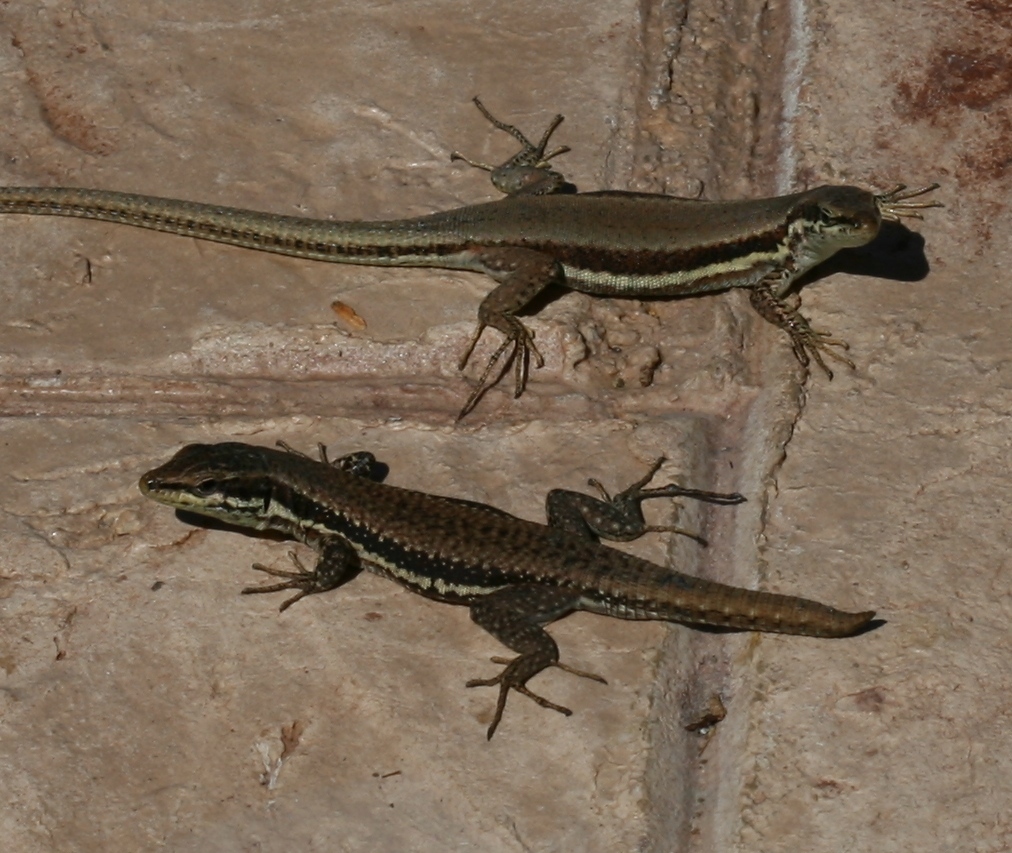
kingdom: Animalia
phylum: Chordata
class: Squamata
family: Lacertidae
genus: Phoenicolacerta
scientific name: Phoenicolacerta troodica
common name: Troodos wall lizard
